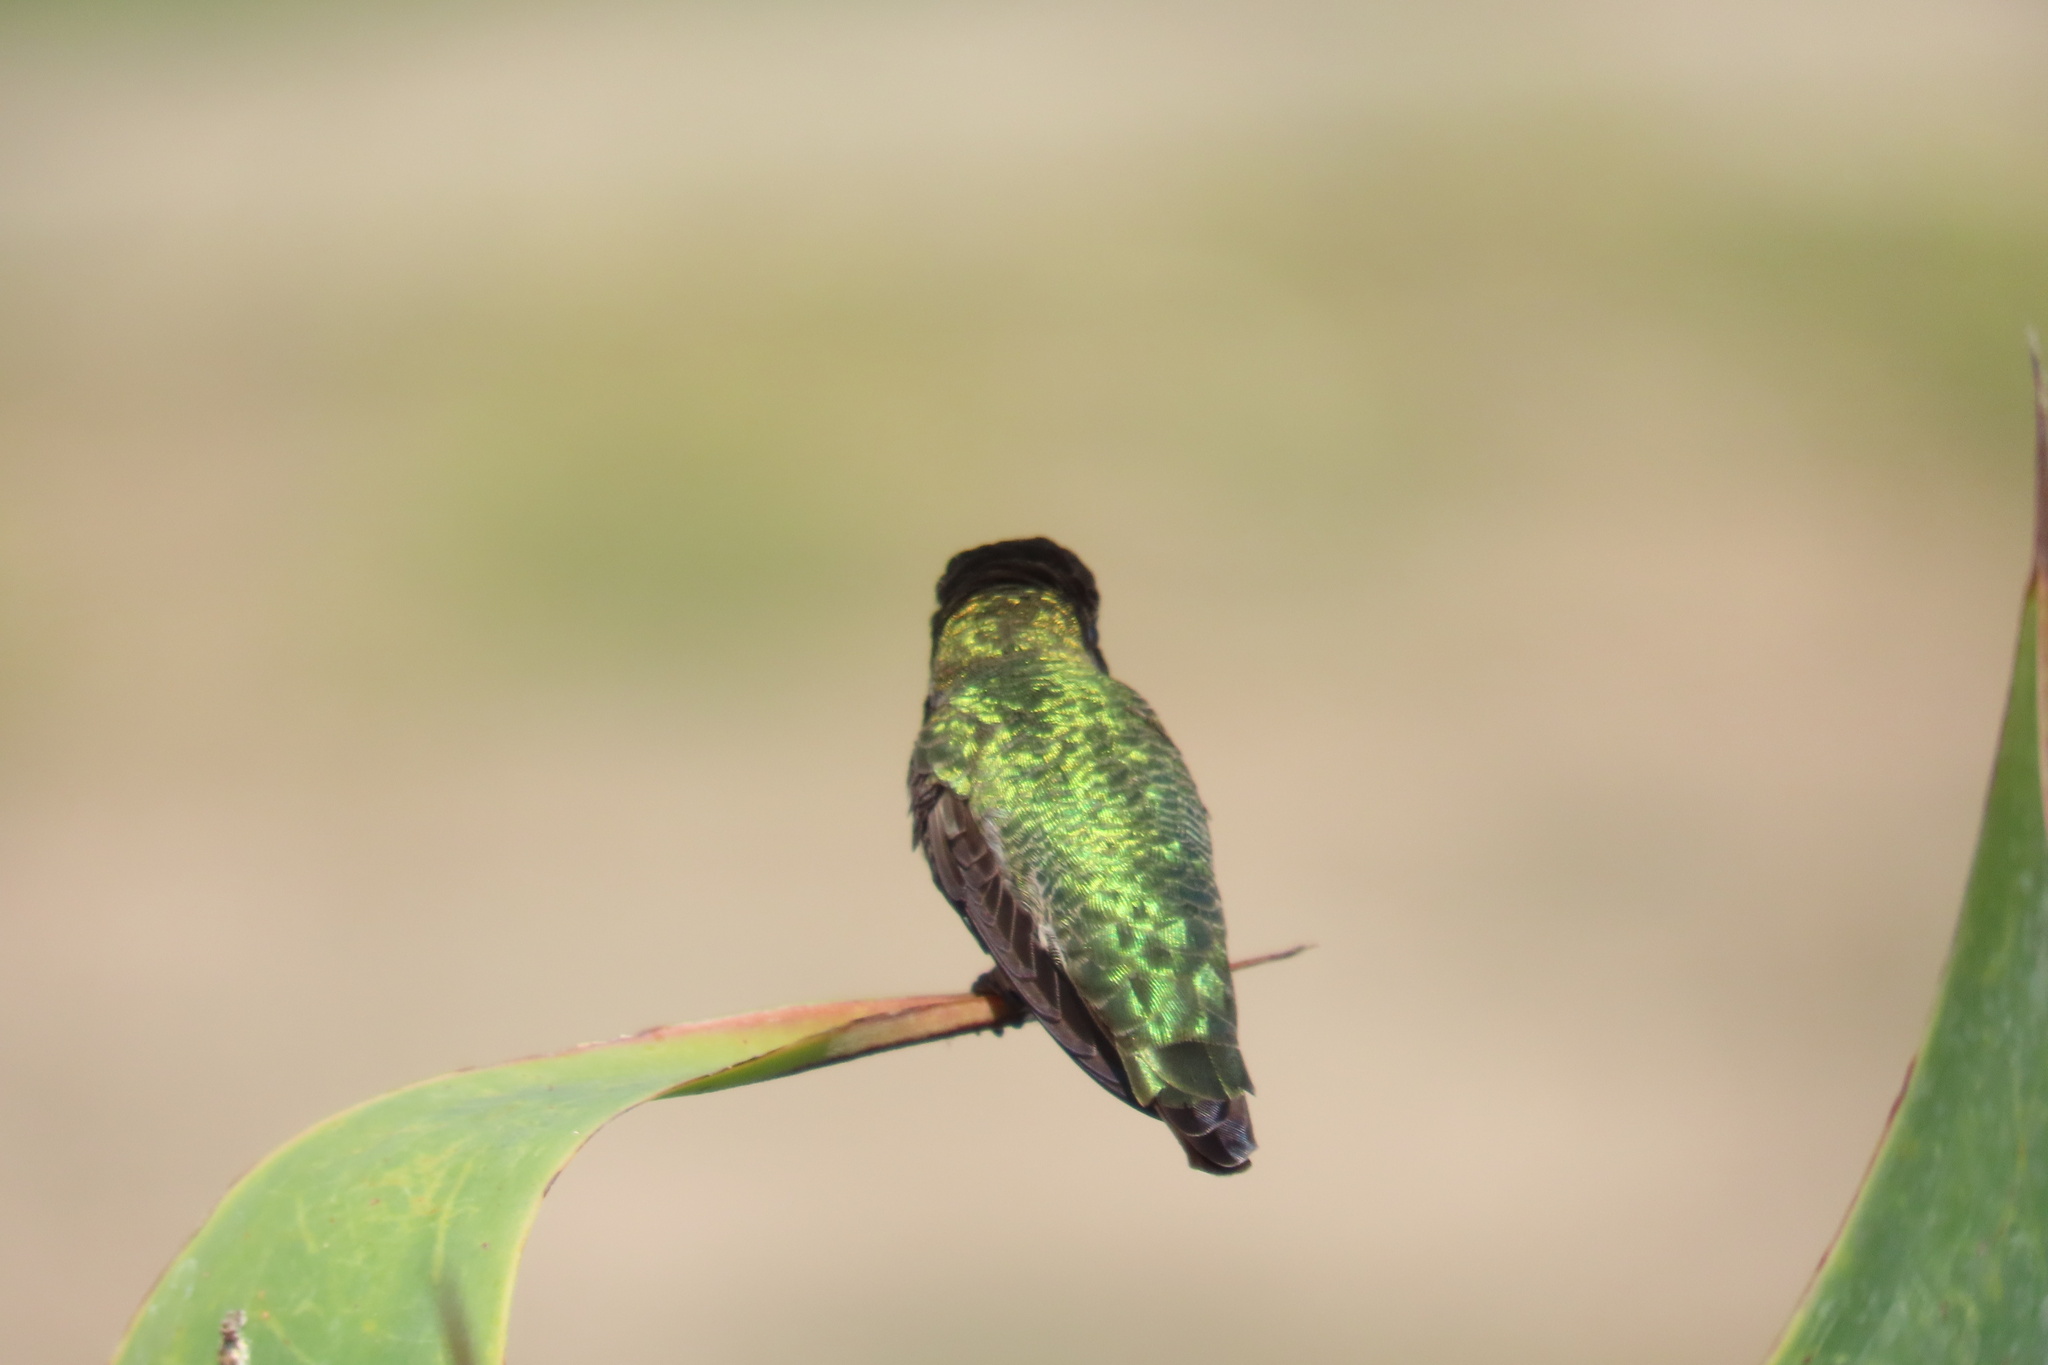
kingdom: Animalia
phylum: Chordata
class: Aves
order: Apodiformes
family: Trochilidae
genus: Calypte
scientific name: Calypte anna
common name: Anna's hummingbird
